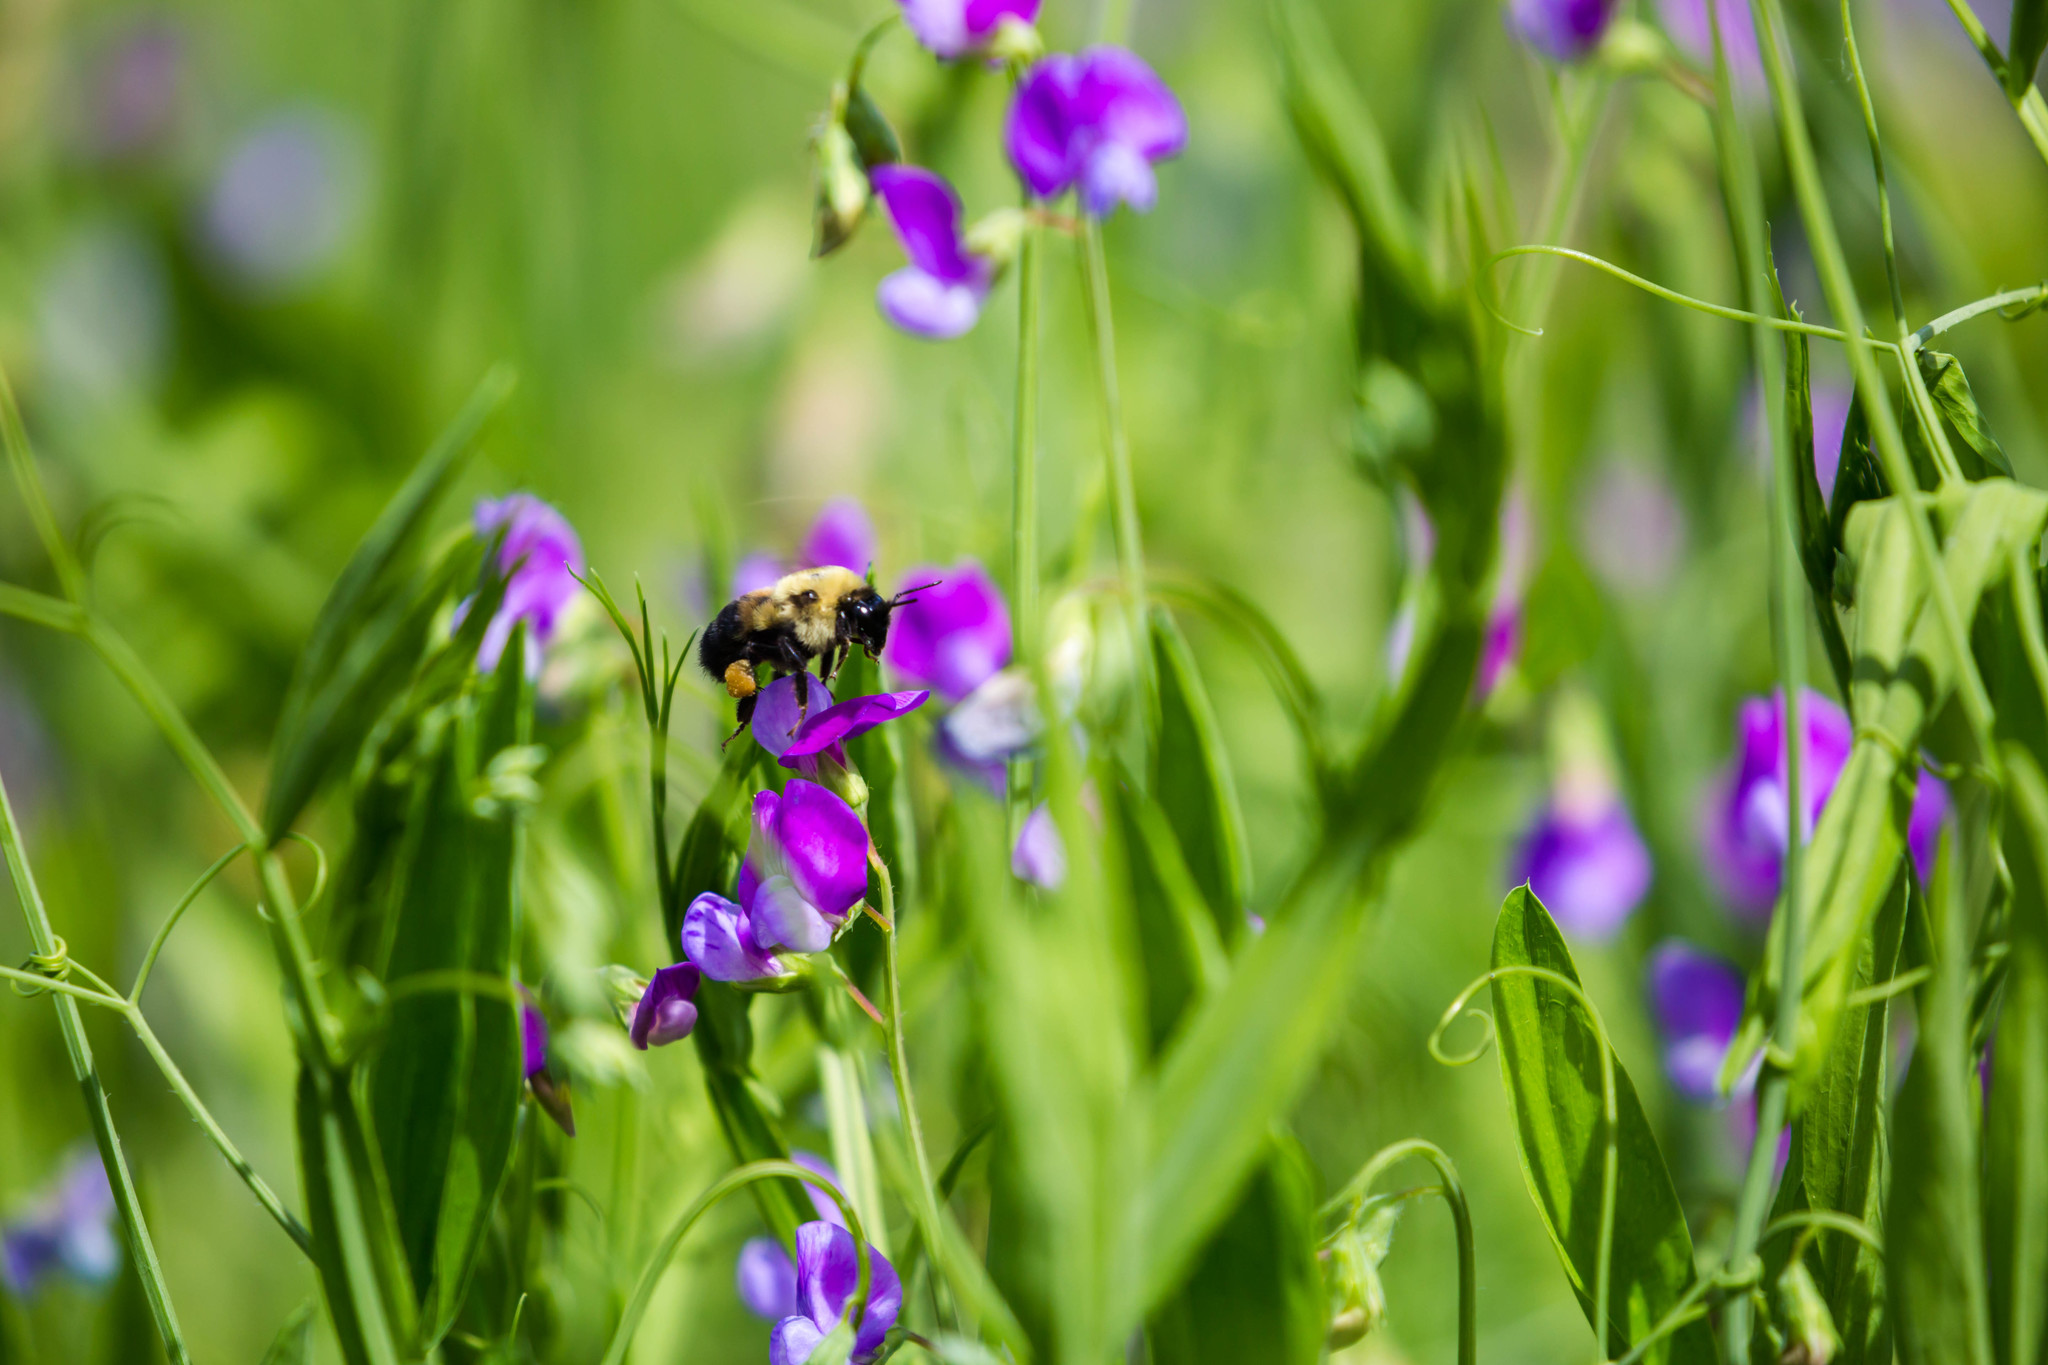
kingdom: Animalia
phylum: Arthropoda
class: Insecta
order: Hymenoptera
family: Apidae
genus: Bombus
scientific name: Bombus griseocollis
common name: Brown-belted bumble bee
